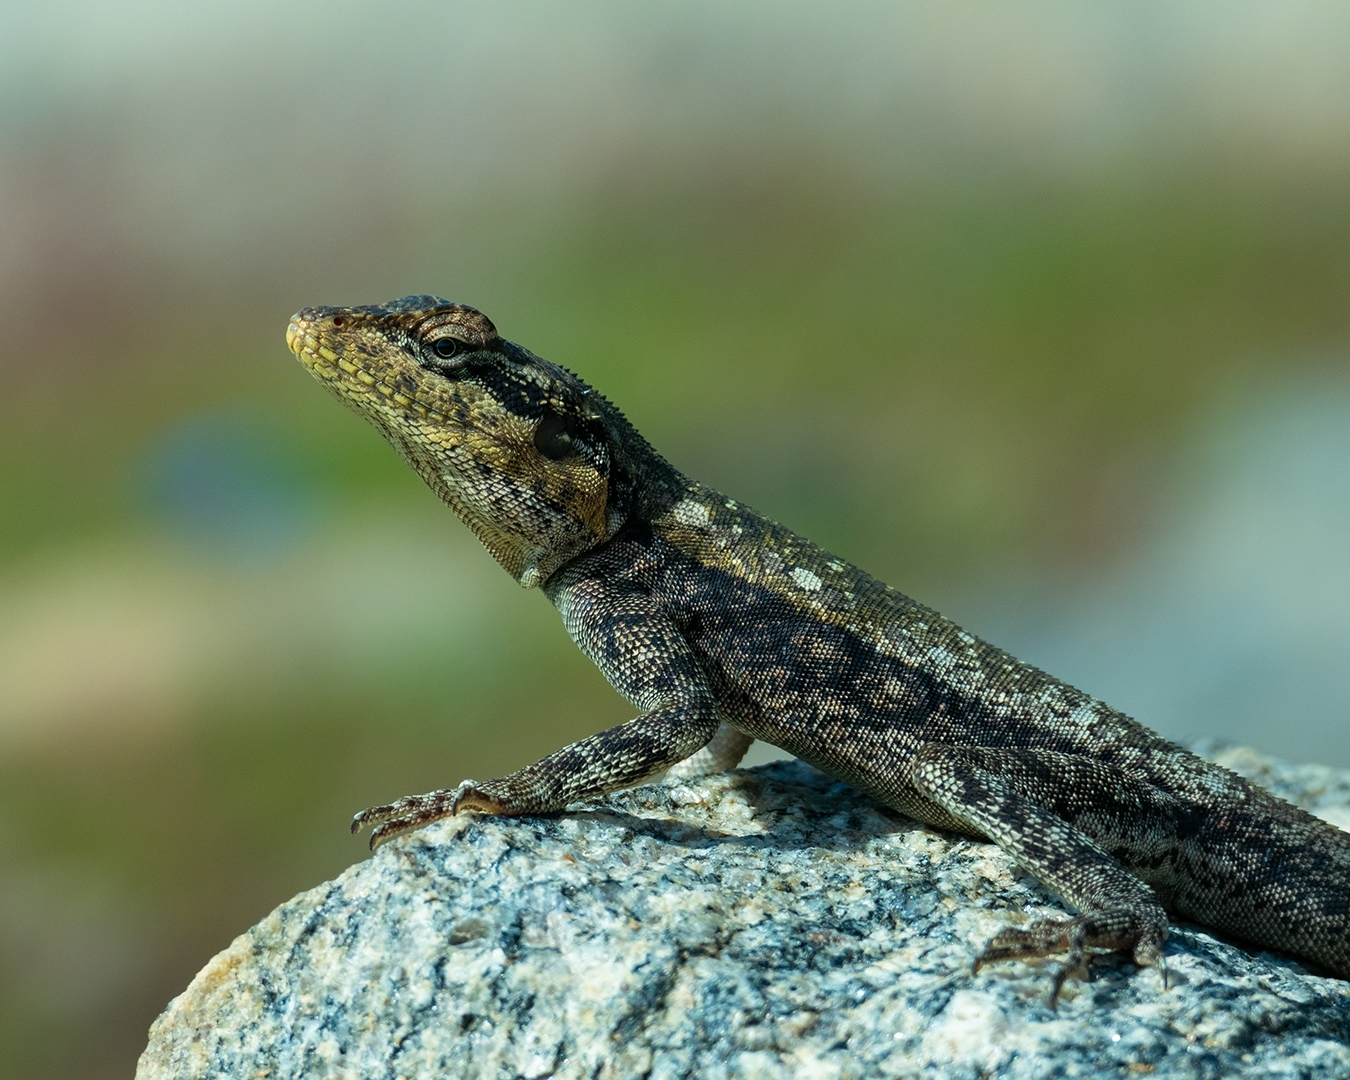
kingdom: Animalia
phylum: Chordata
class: Squamata
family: Agamidae
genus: Psammophilus
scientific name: Psammophilus dorsalis
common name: South indian rock agama
